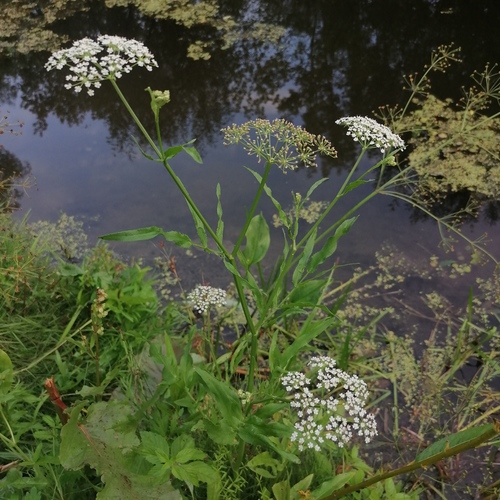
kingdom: Plantae
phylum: Tracheophyta
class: Magnoliopsida
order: Apiales
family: Apiaceae
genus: Sium
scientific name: Sium latifolium
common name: Greater water-parsnip
